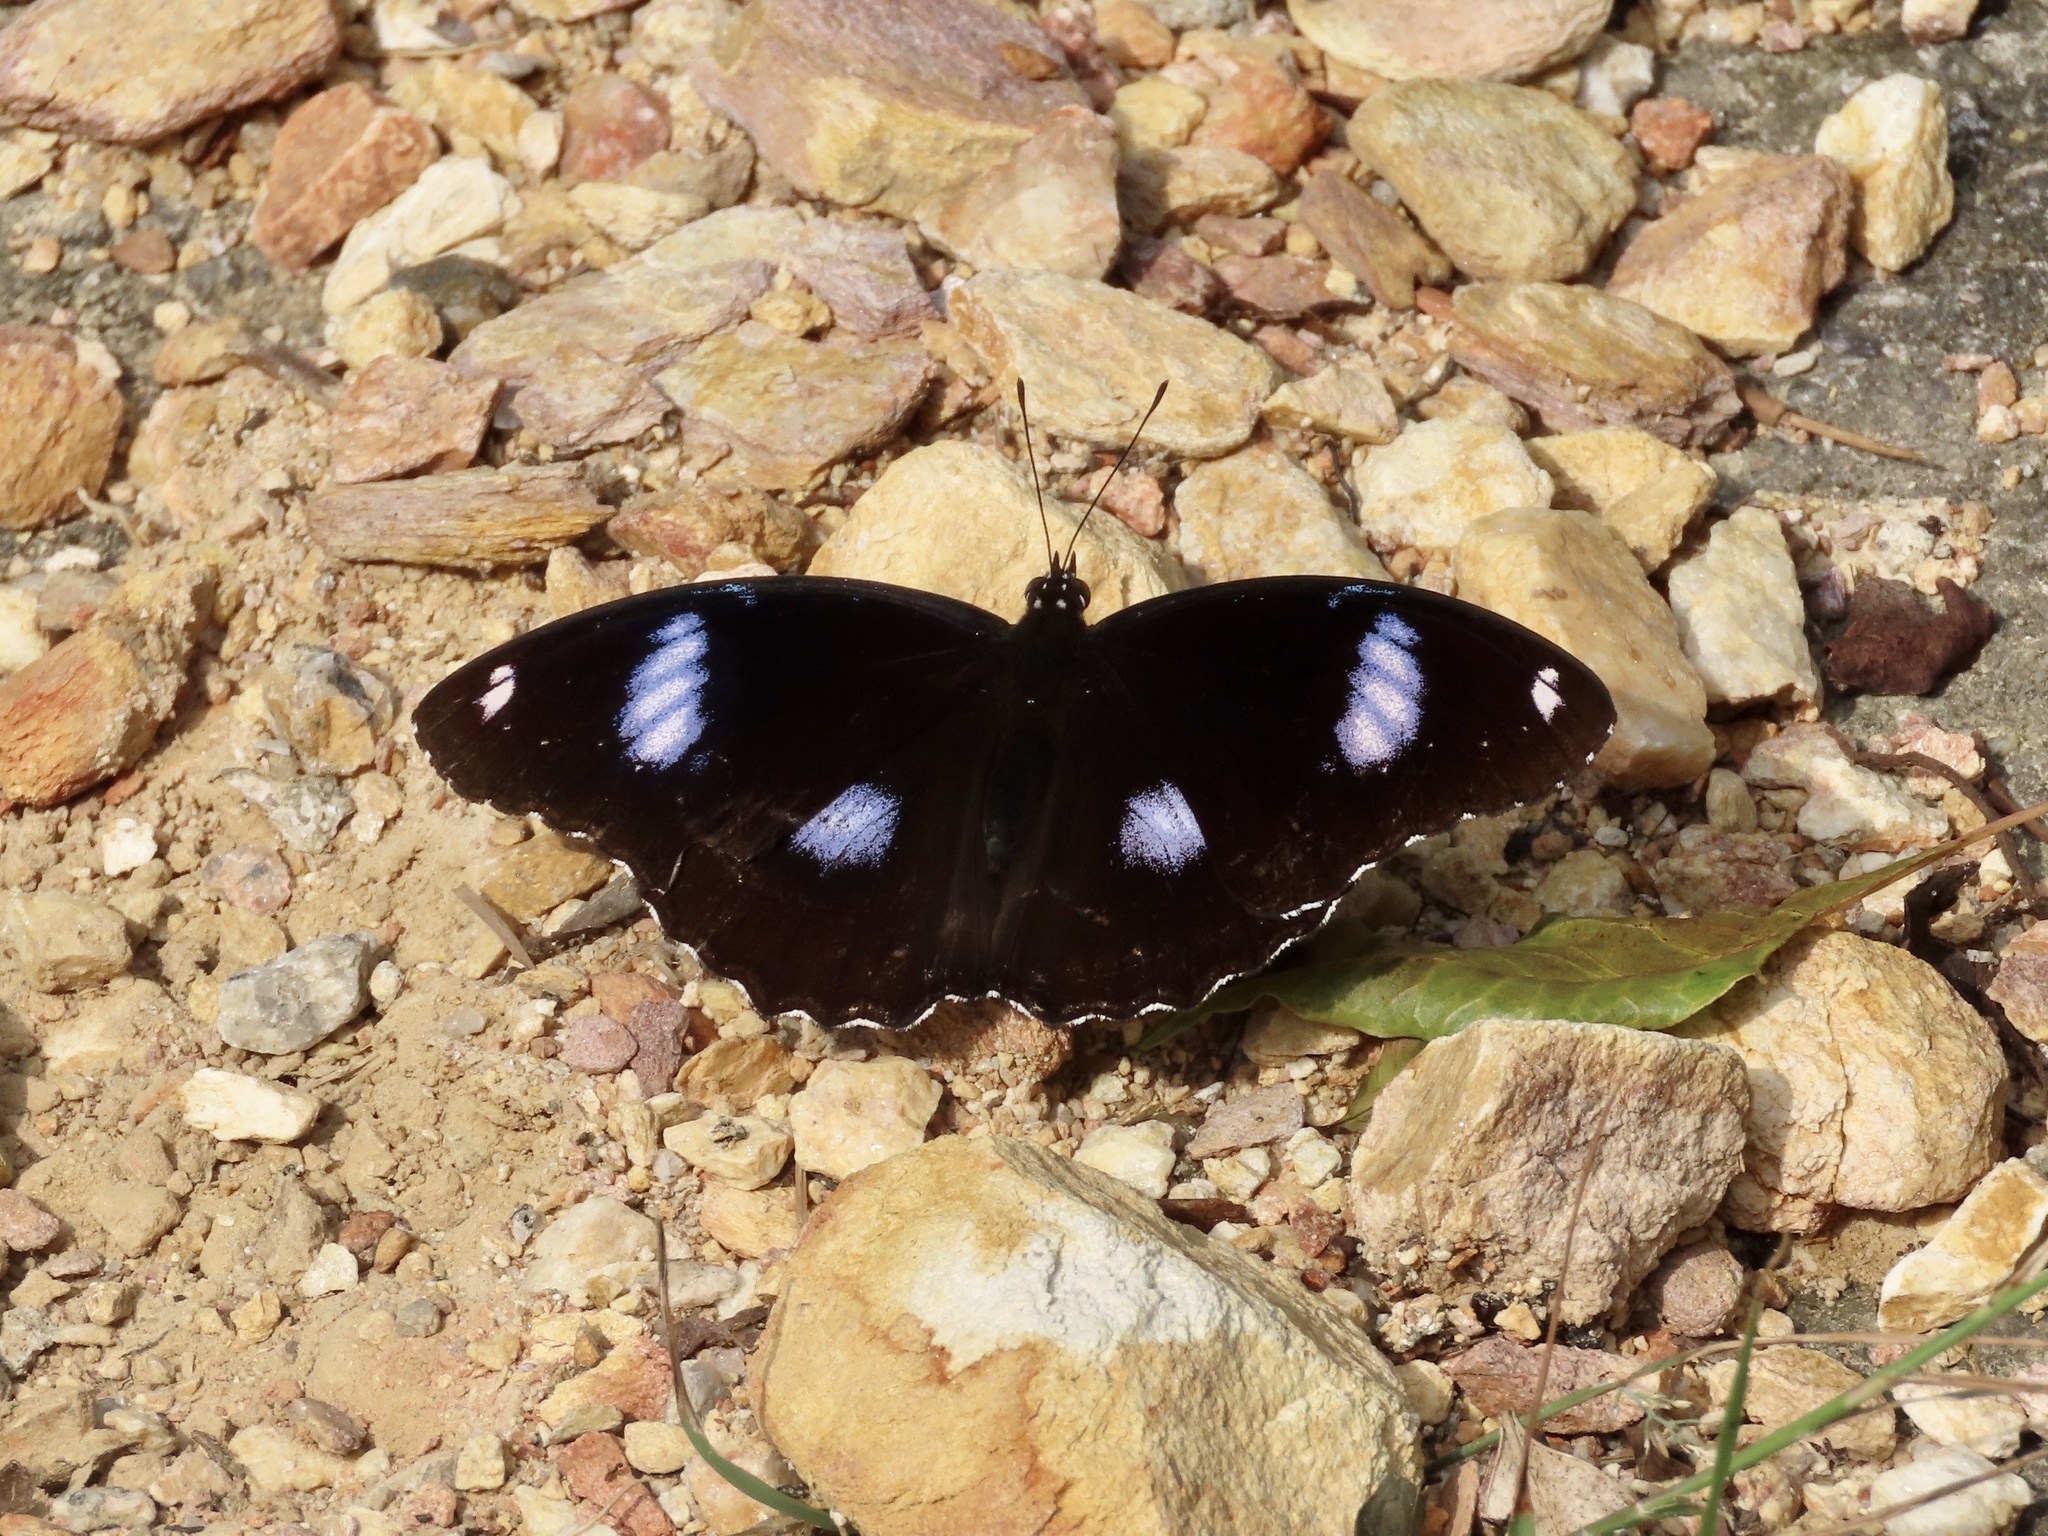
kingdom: Animalia
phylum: Arthropoda
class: Insecta
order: Lepidoptera
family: Nymphalidae
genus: Hypolimnas
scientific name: Hypolimnas bolina
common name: Great eggfly
